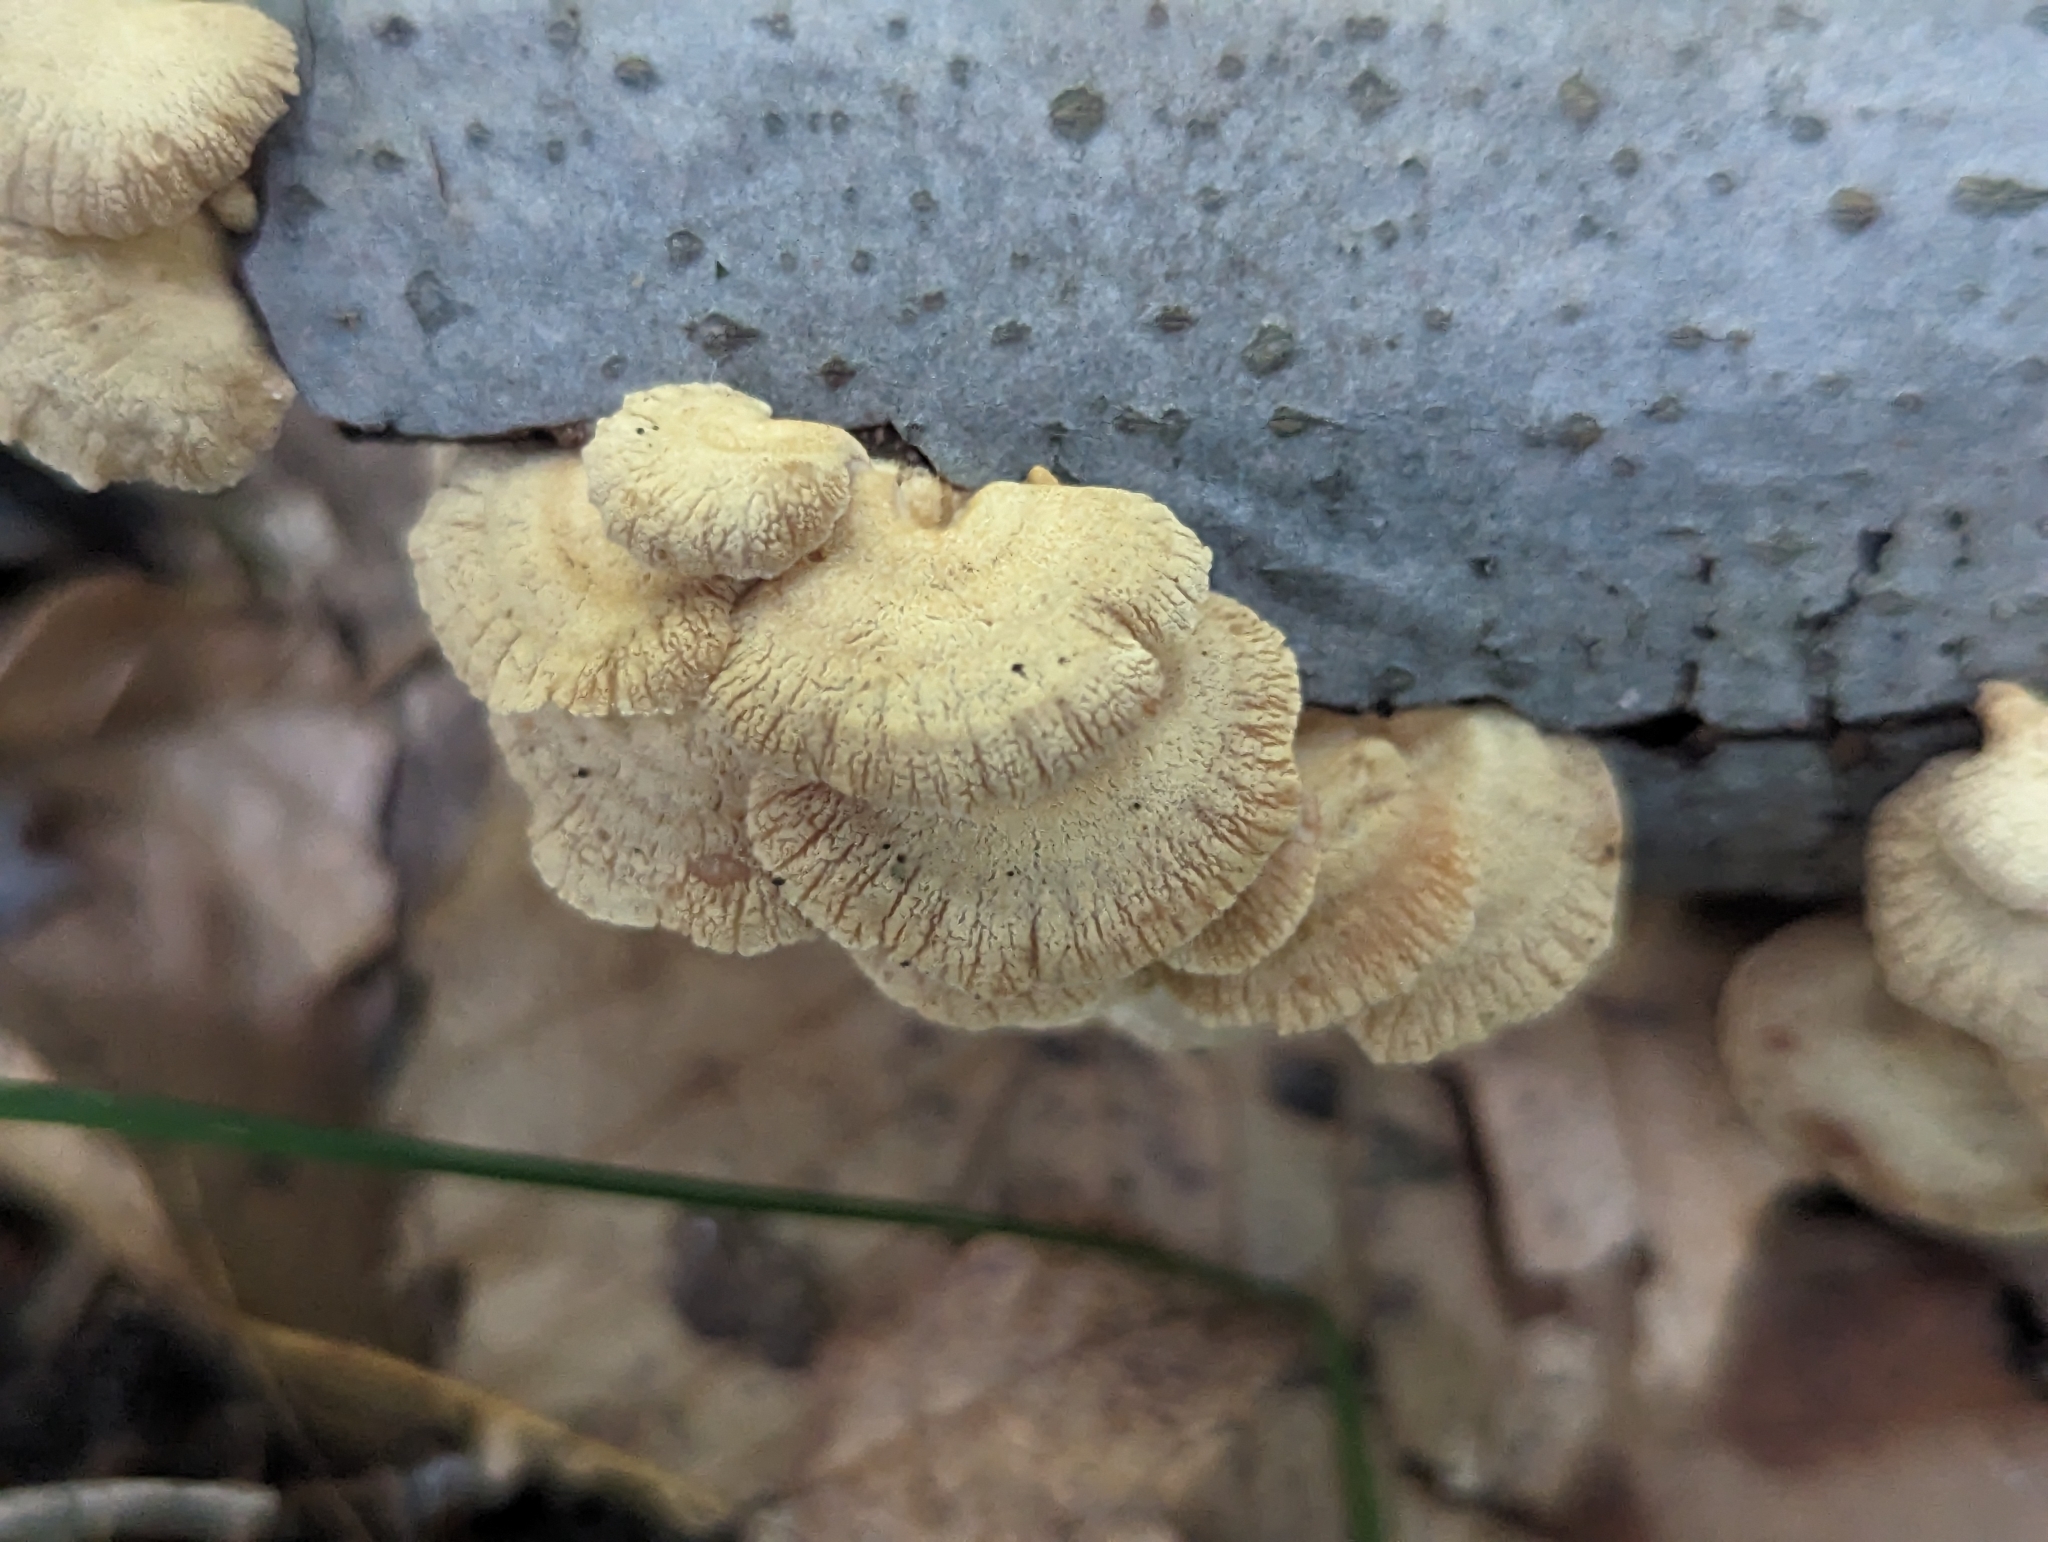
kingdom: Fungi
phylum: Basidiomycota
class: Agaricomycetes
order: Agaricales
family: Mycenaceae
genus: Panellus
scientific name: Panellus stipticus
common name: Bitter oysterling
